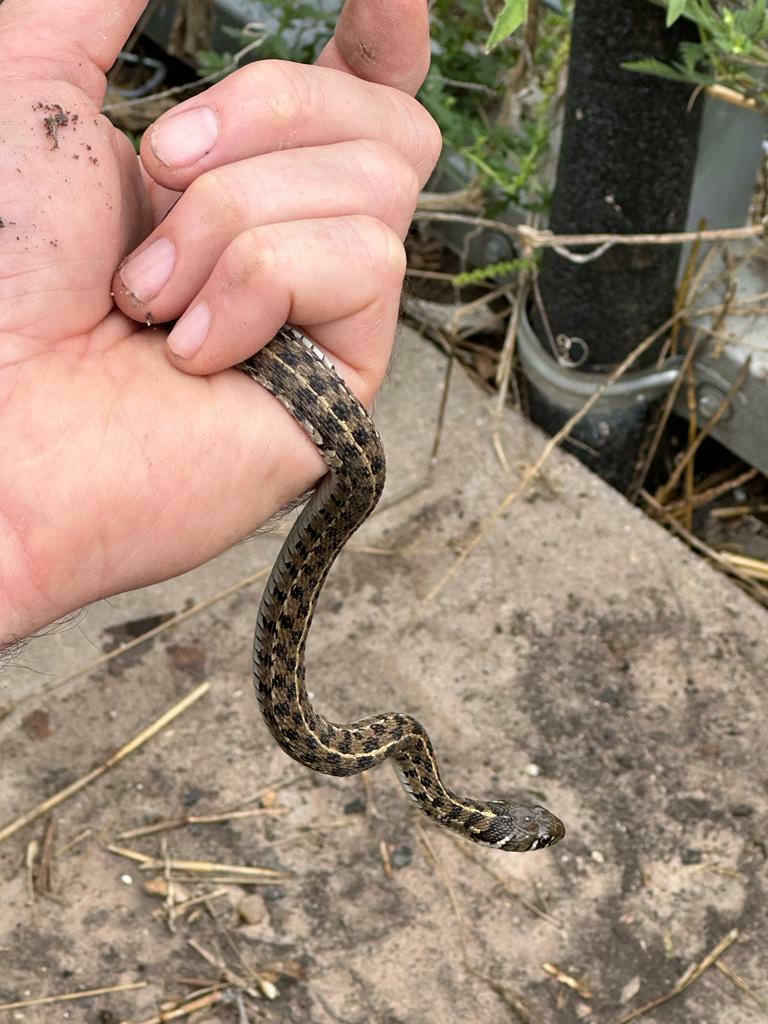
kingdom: Animalia
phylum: Chordata
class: Squamata
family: Colubridae
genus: Thamnophis
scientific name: Thamnophis marcianus
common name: Checkered garter snake
